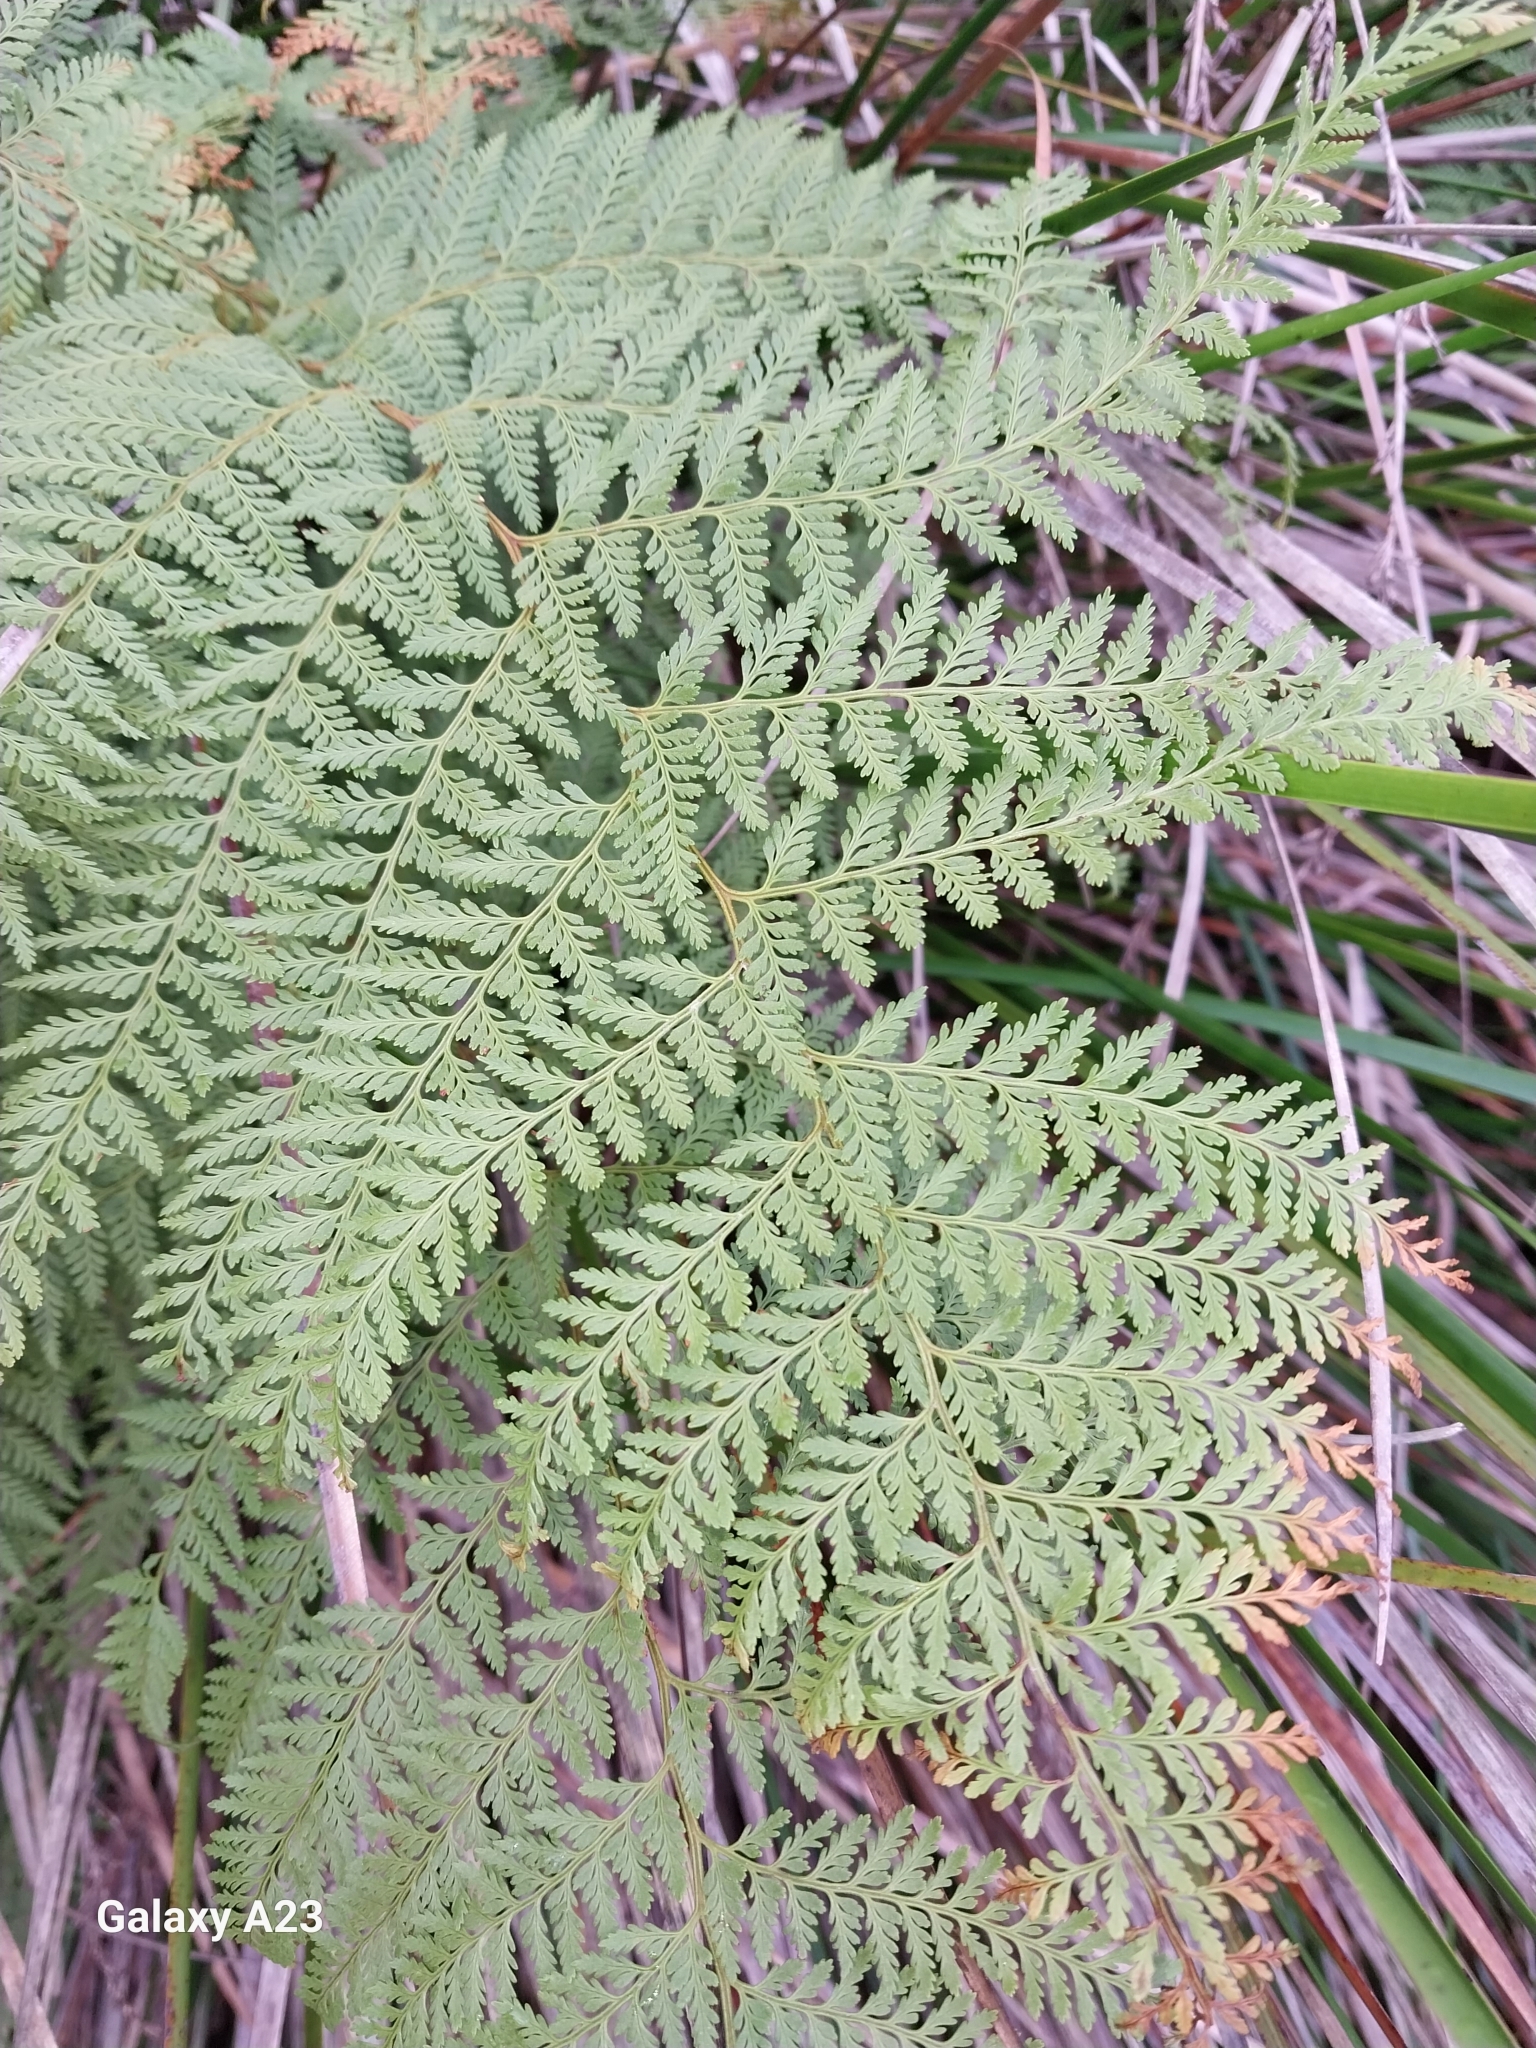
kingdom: Plantae
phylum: Tracheophyta
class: Polypodiopsida
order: Polypodiales
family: Dennstaedtiaceae
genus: Paesia
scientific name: Paesia scaberula
